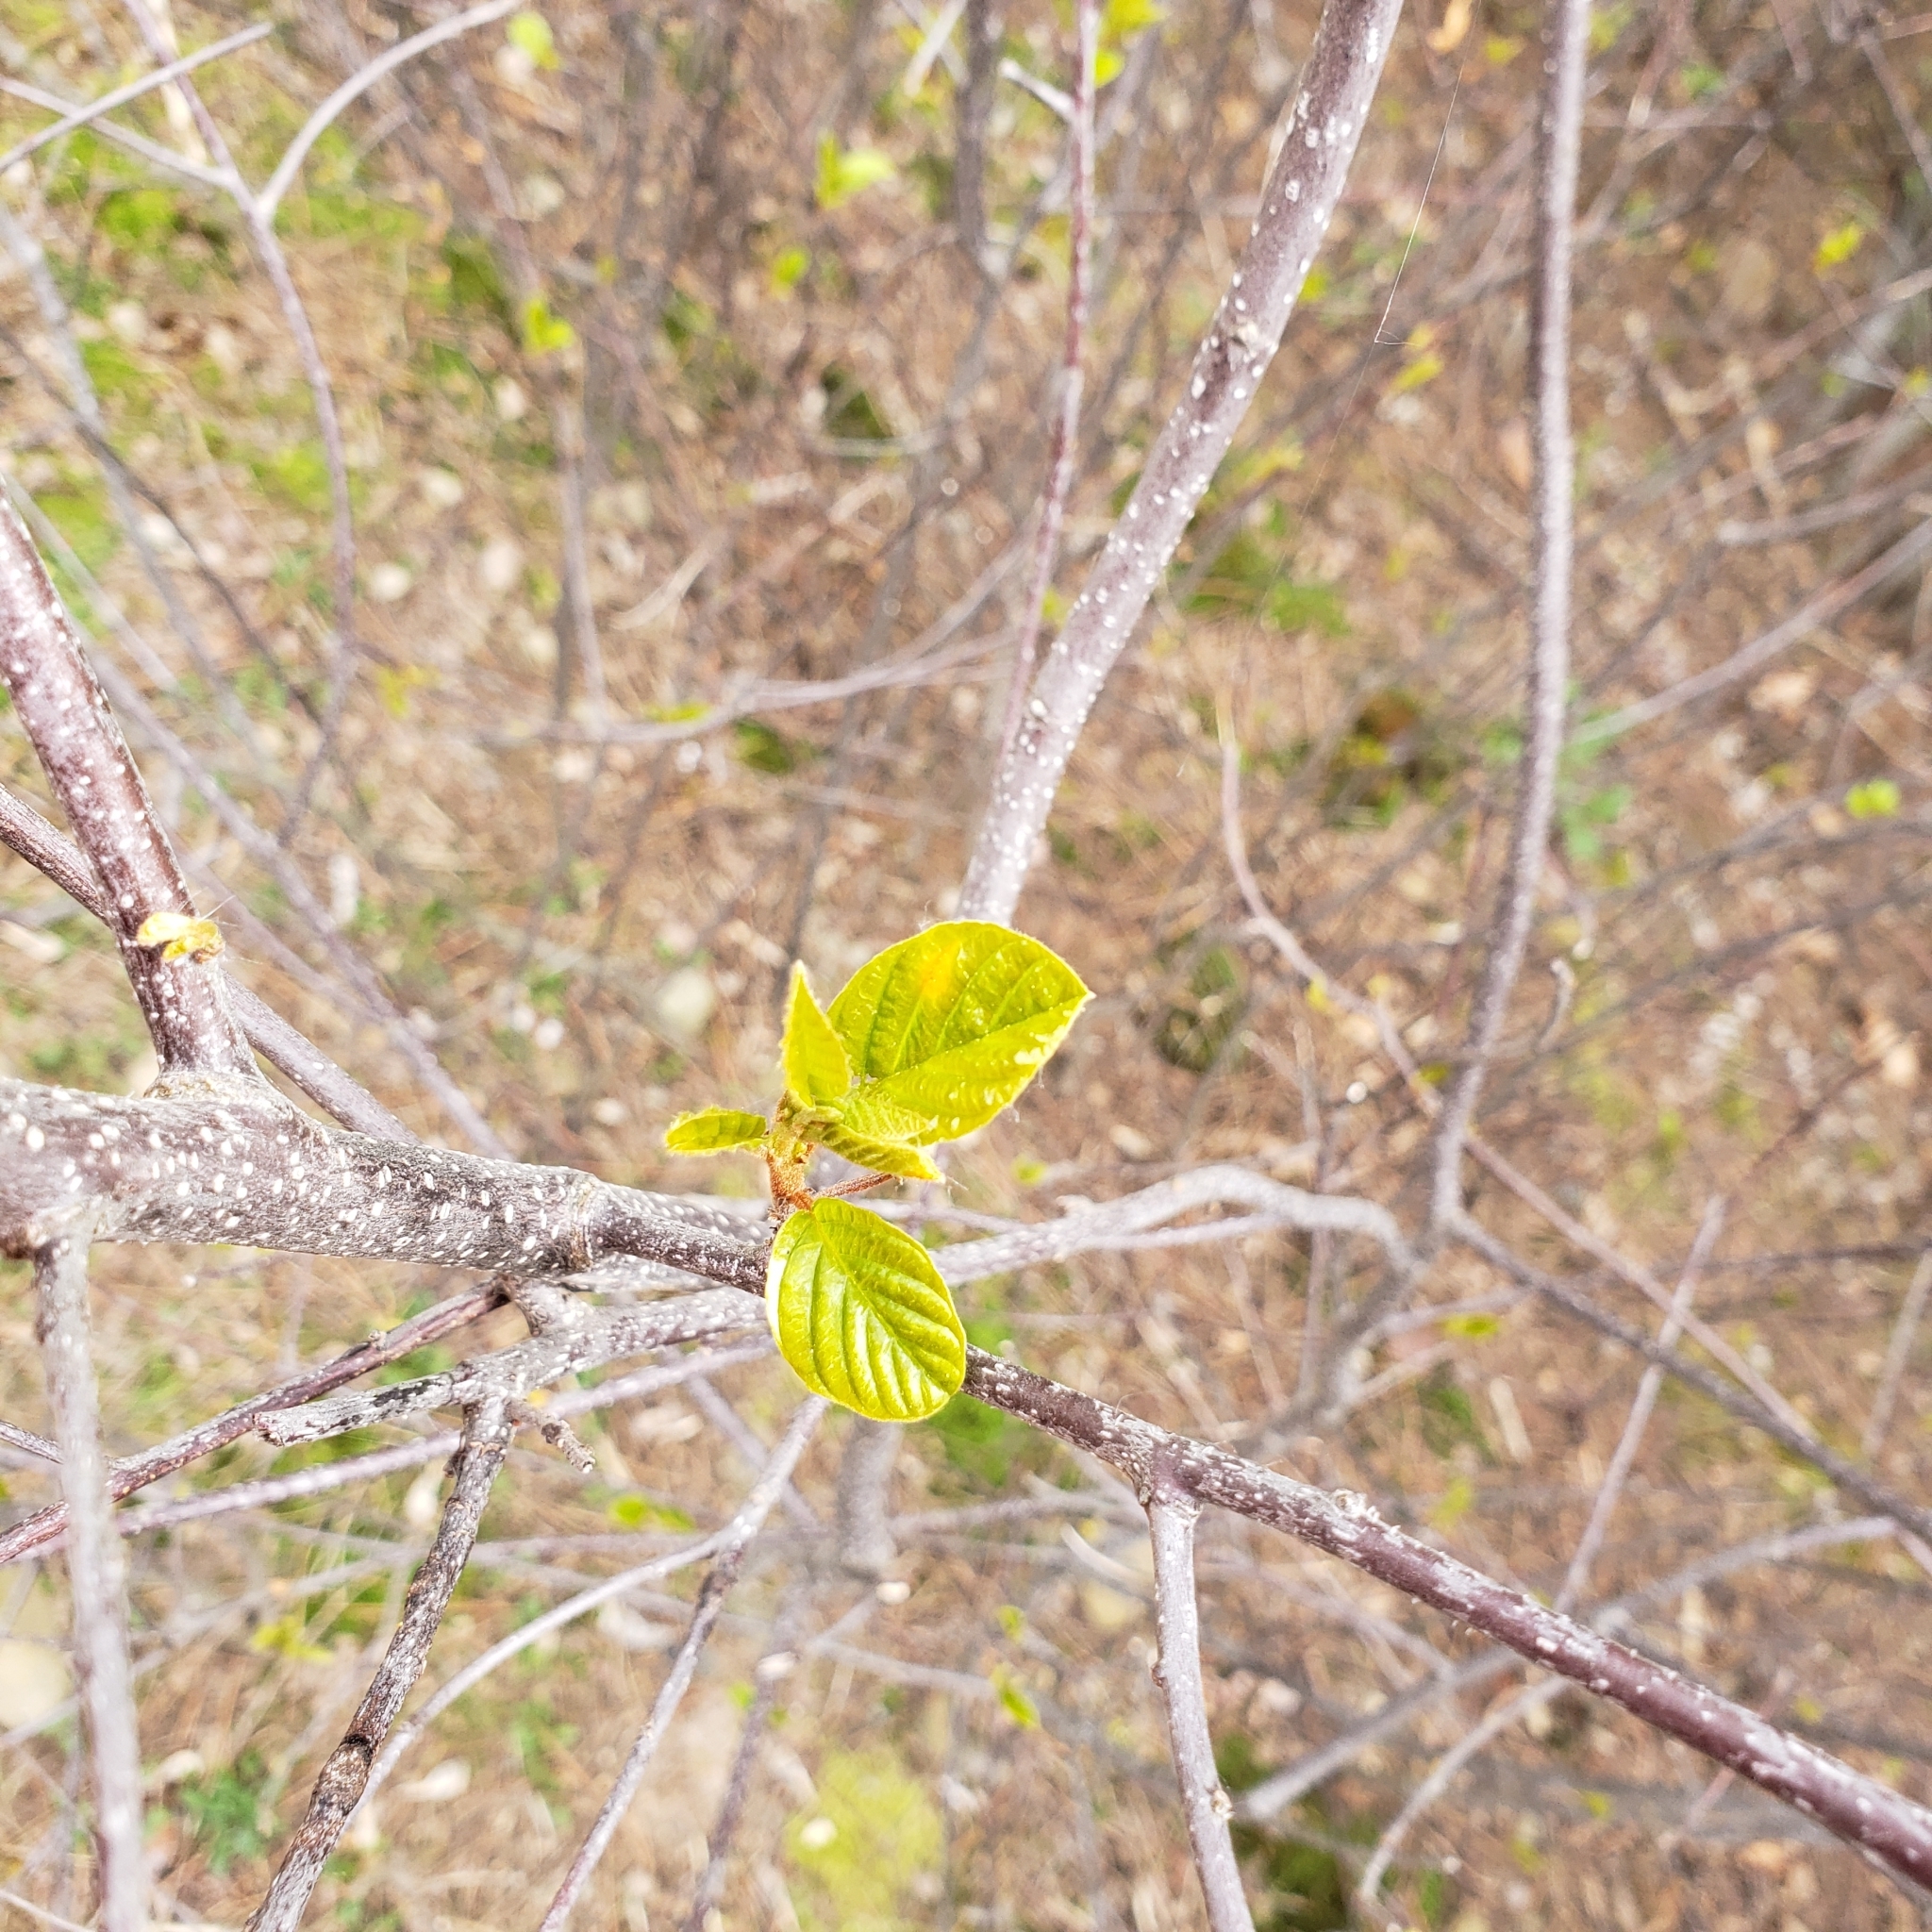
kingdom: Plantae
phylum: Tracheophyta
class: Magnoliopsida
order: Rosales
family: Rhamnaceae
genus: Frangula
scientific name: Frangula alnus
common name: Alder buckthorn
